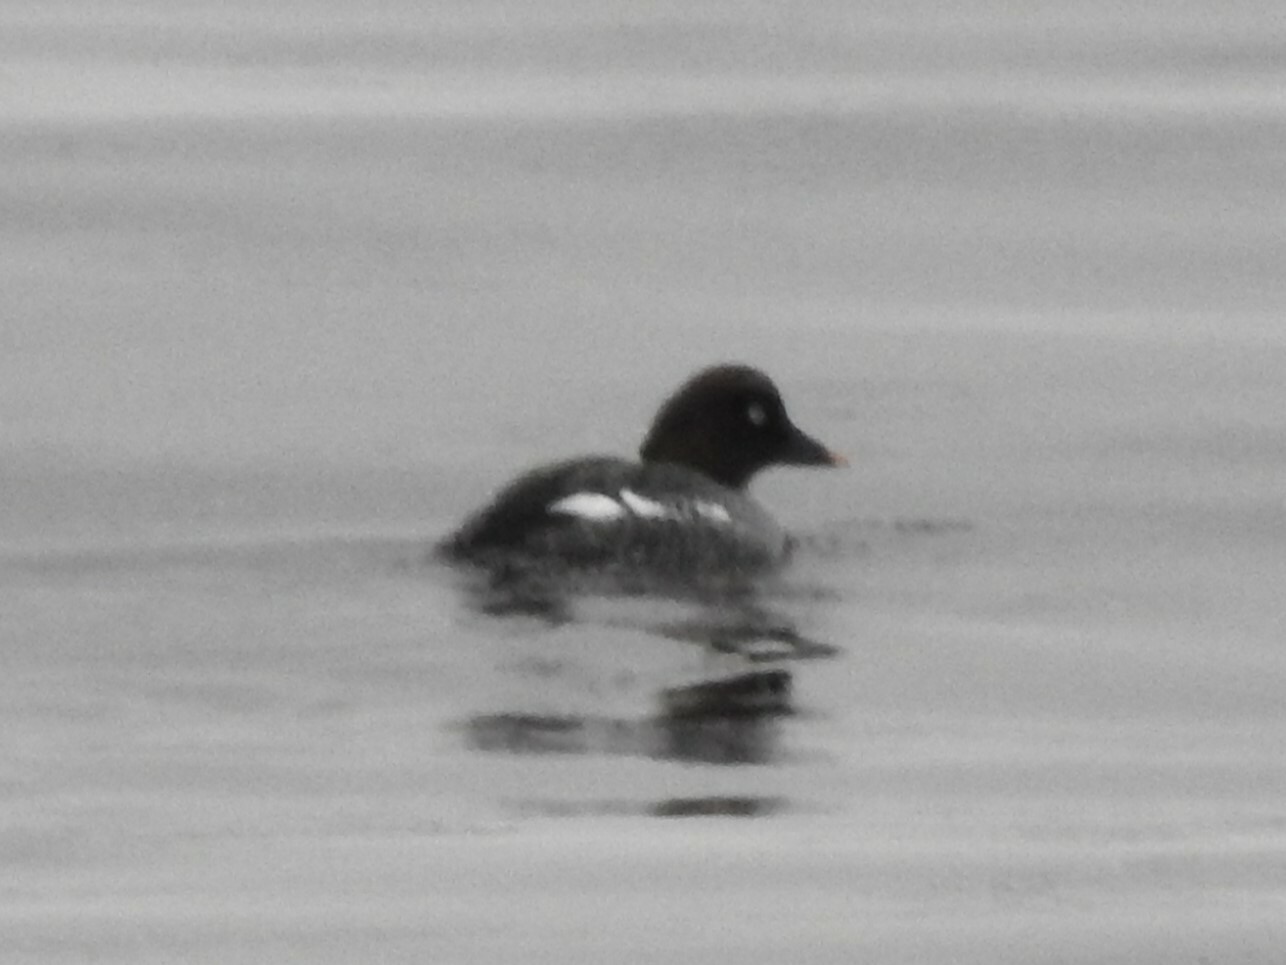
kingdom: Animalia
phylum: Chordata
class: Aves
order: Anseriformes
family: Anatidae
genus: Bucephala
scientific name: Bucephala clangula
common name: Common goldeneye
